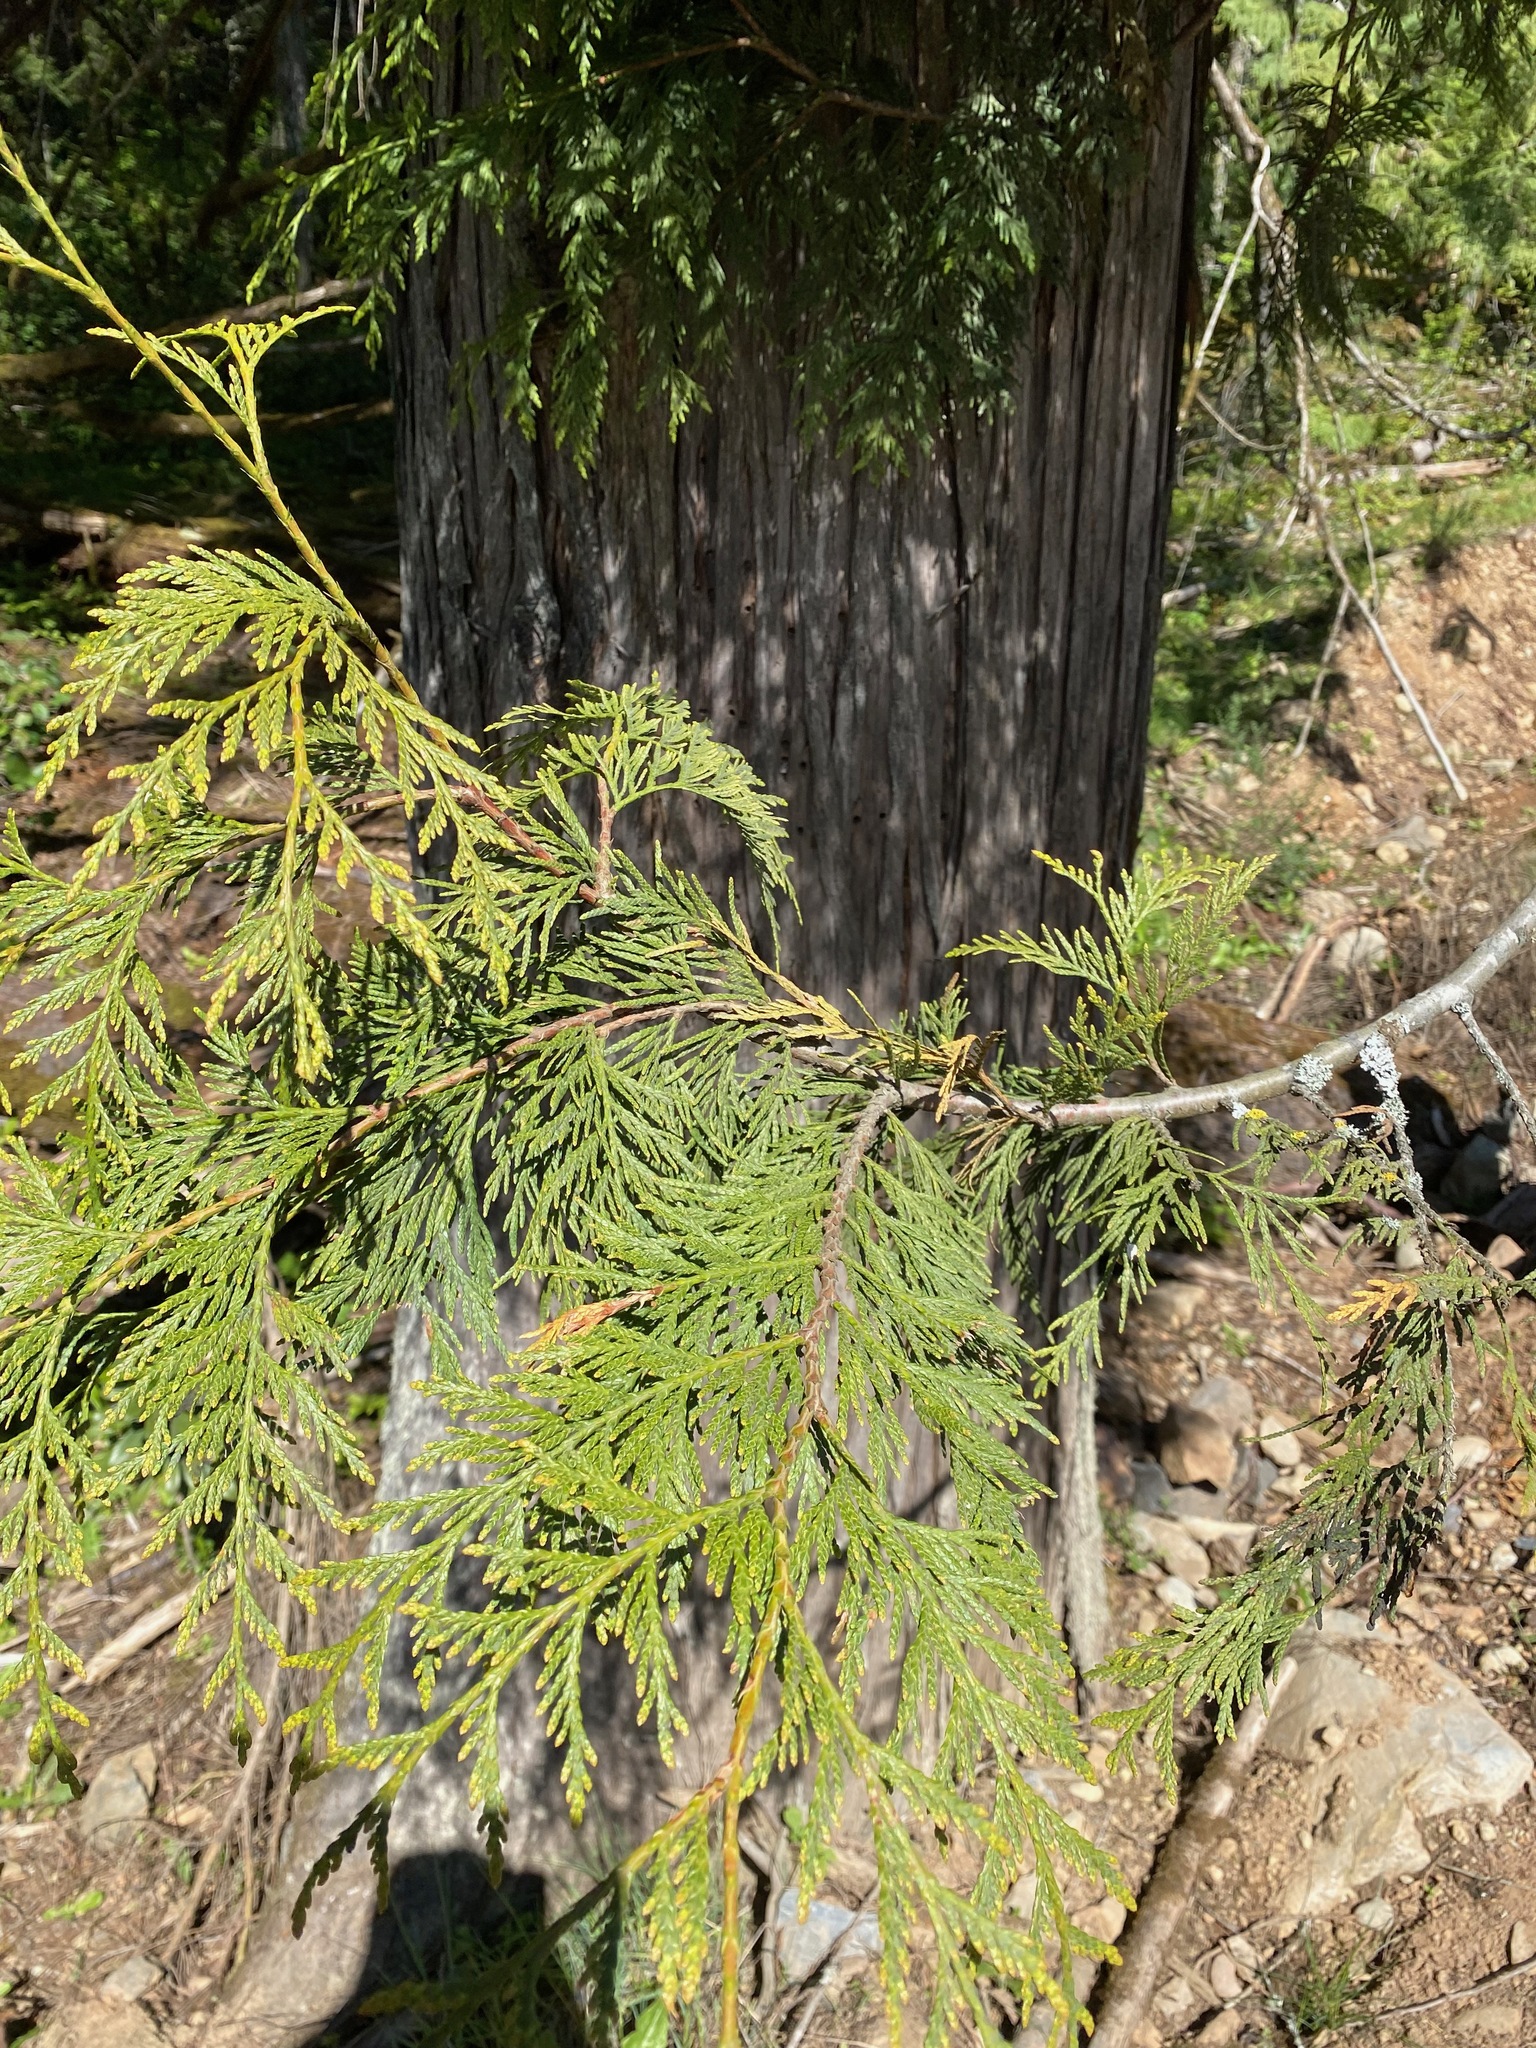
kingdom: Plantae
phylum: Tracheophyta
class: Pinopsida
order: Pinales
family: Cupressaceae
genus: Thuja
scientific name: Thuja plicata
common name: Western red-cedar
